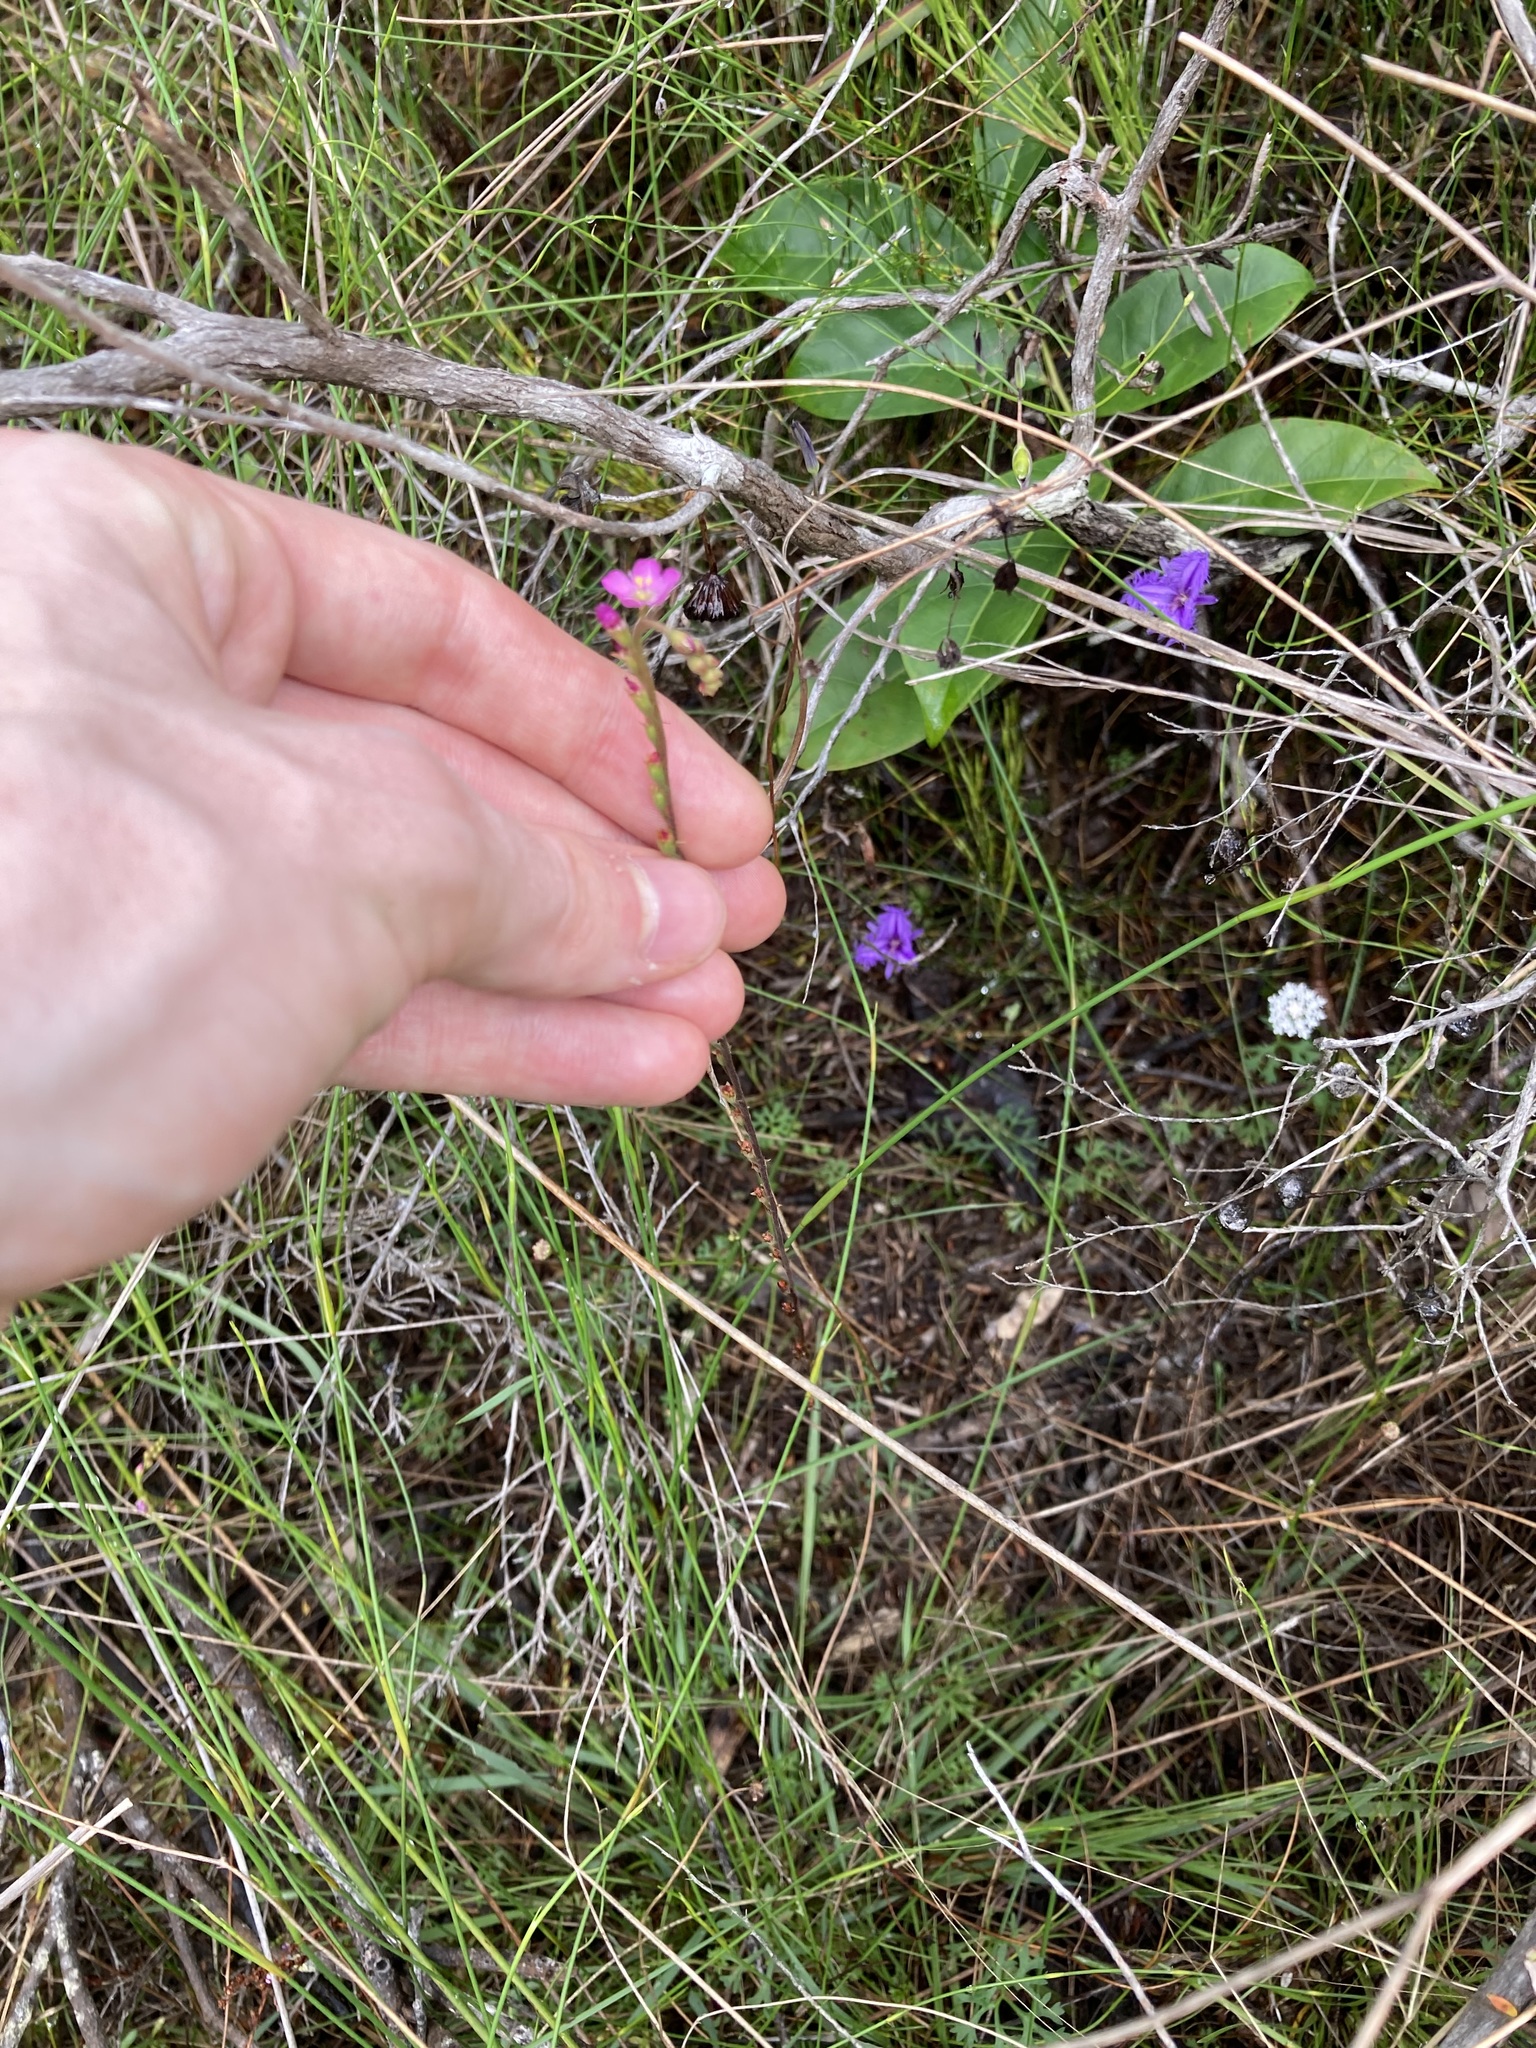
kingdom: Plantae
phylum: Tracheophyta
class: Magnoliopsida
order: Caryophyllales
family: Droseraceae
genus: Drosera
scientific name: Drosera spatulata
